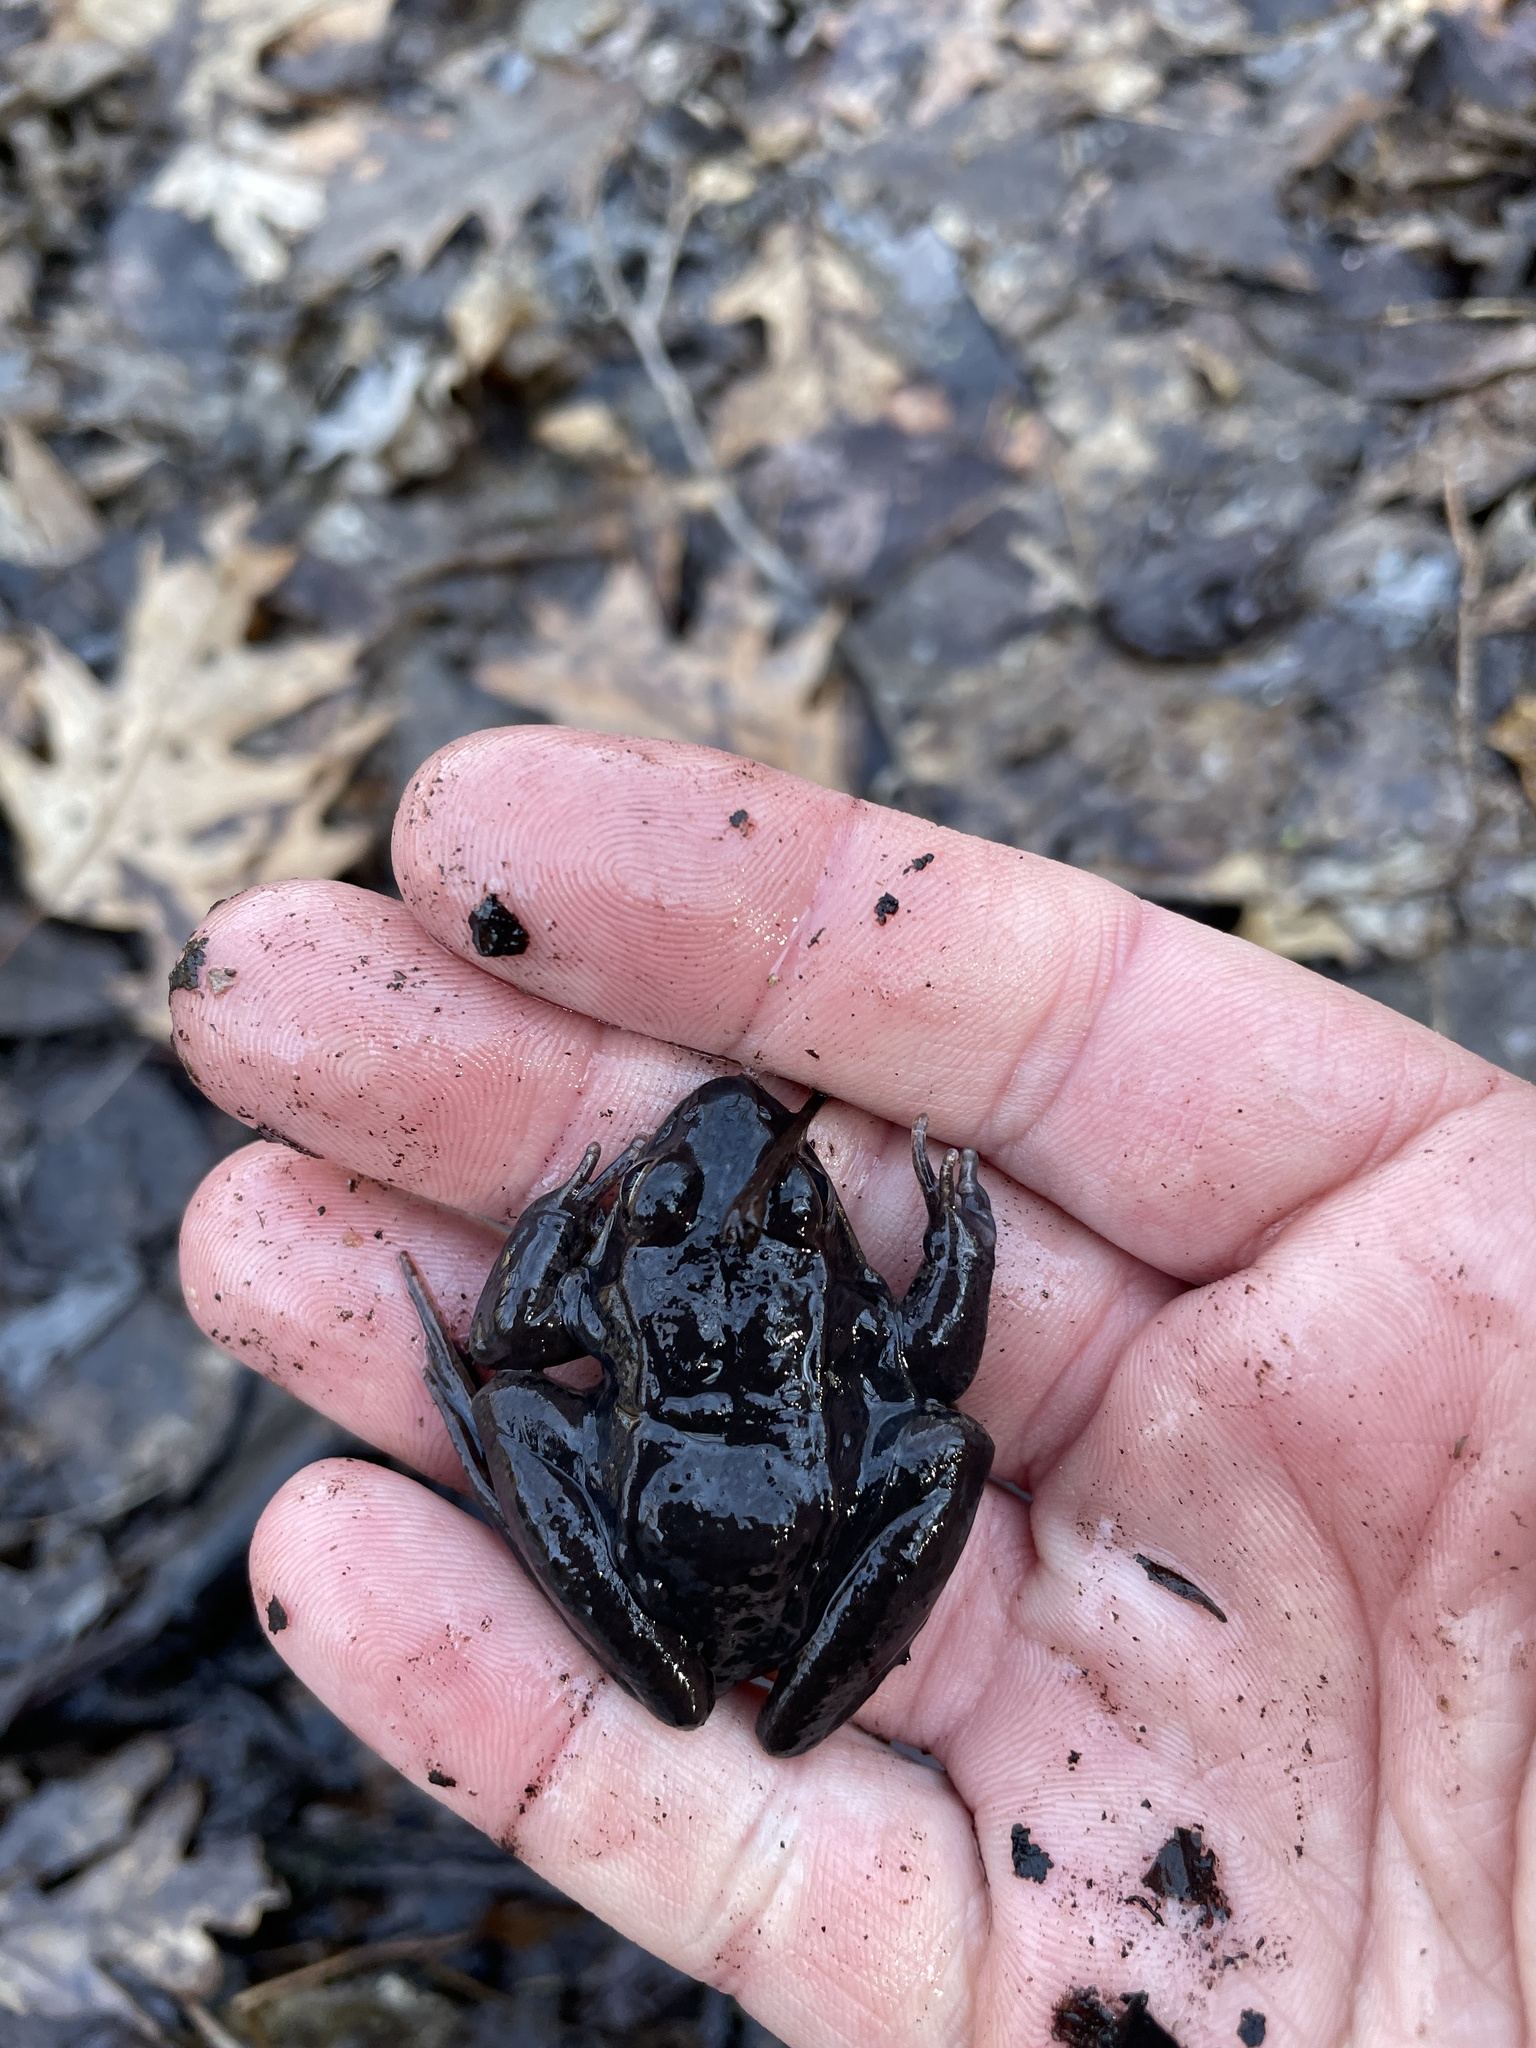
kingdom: Animalia
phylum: Chordata
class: Amphibia
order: Anura
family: Ranidae
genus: Lithobates
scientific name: Lithobates sylvaticus
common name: Wood frog
